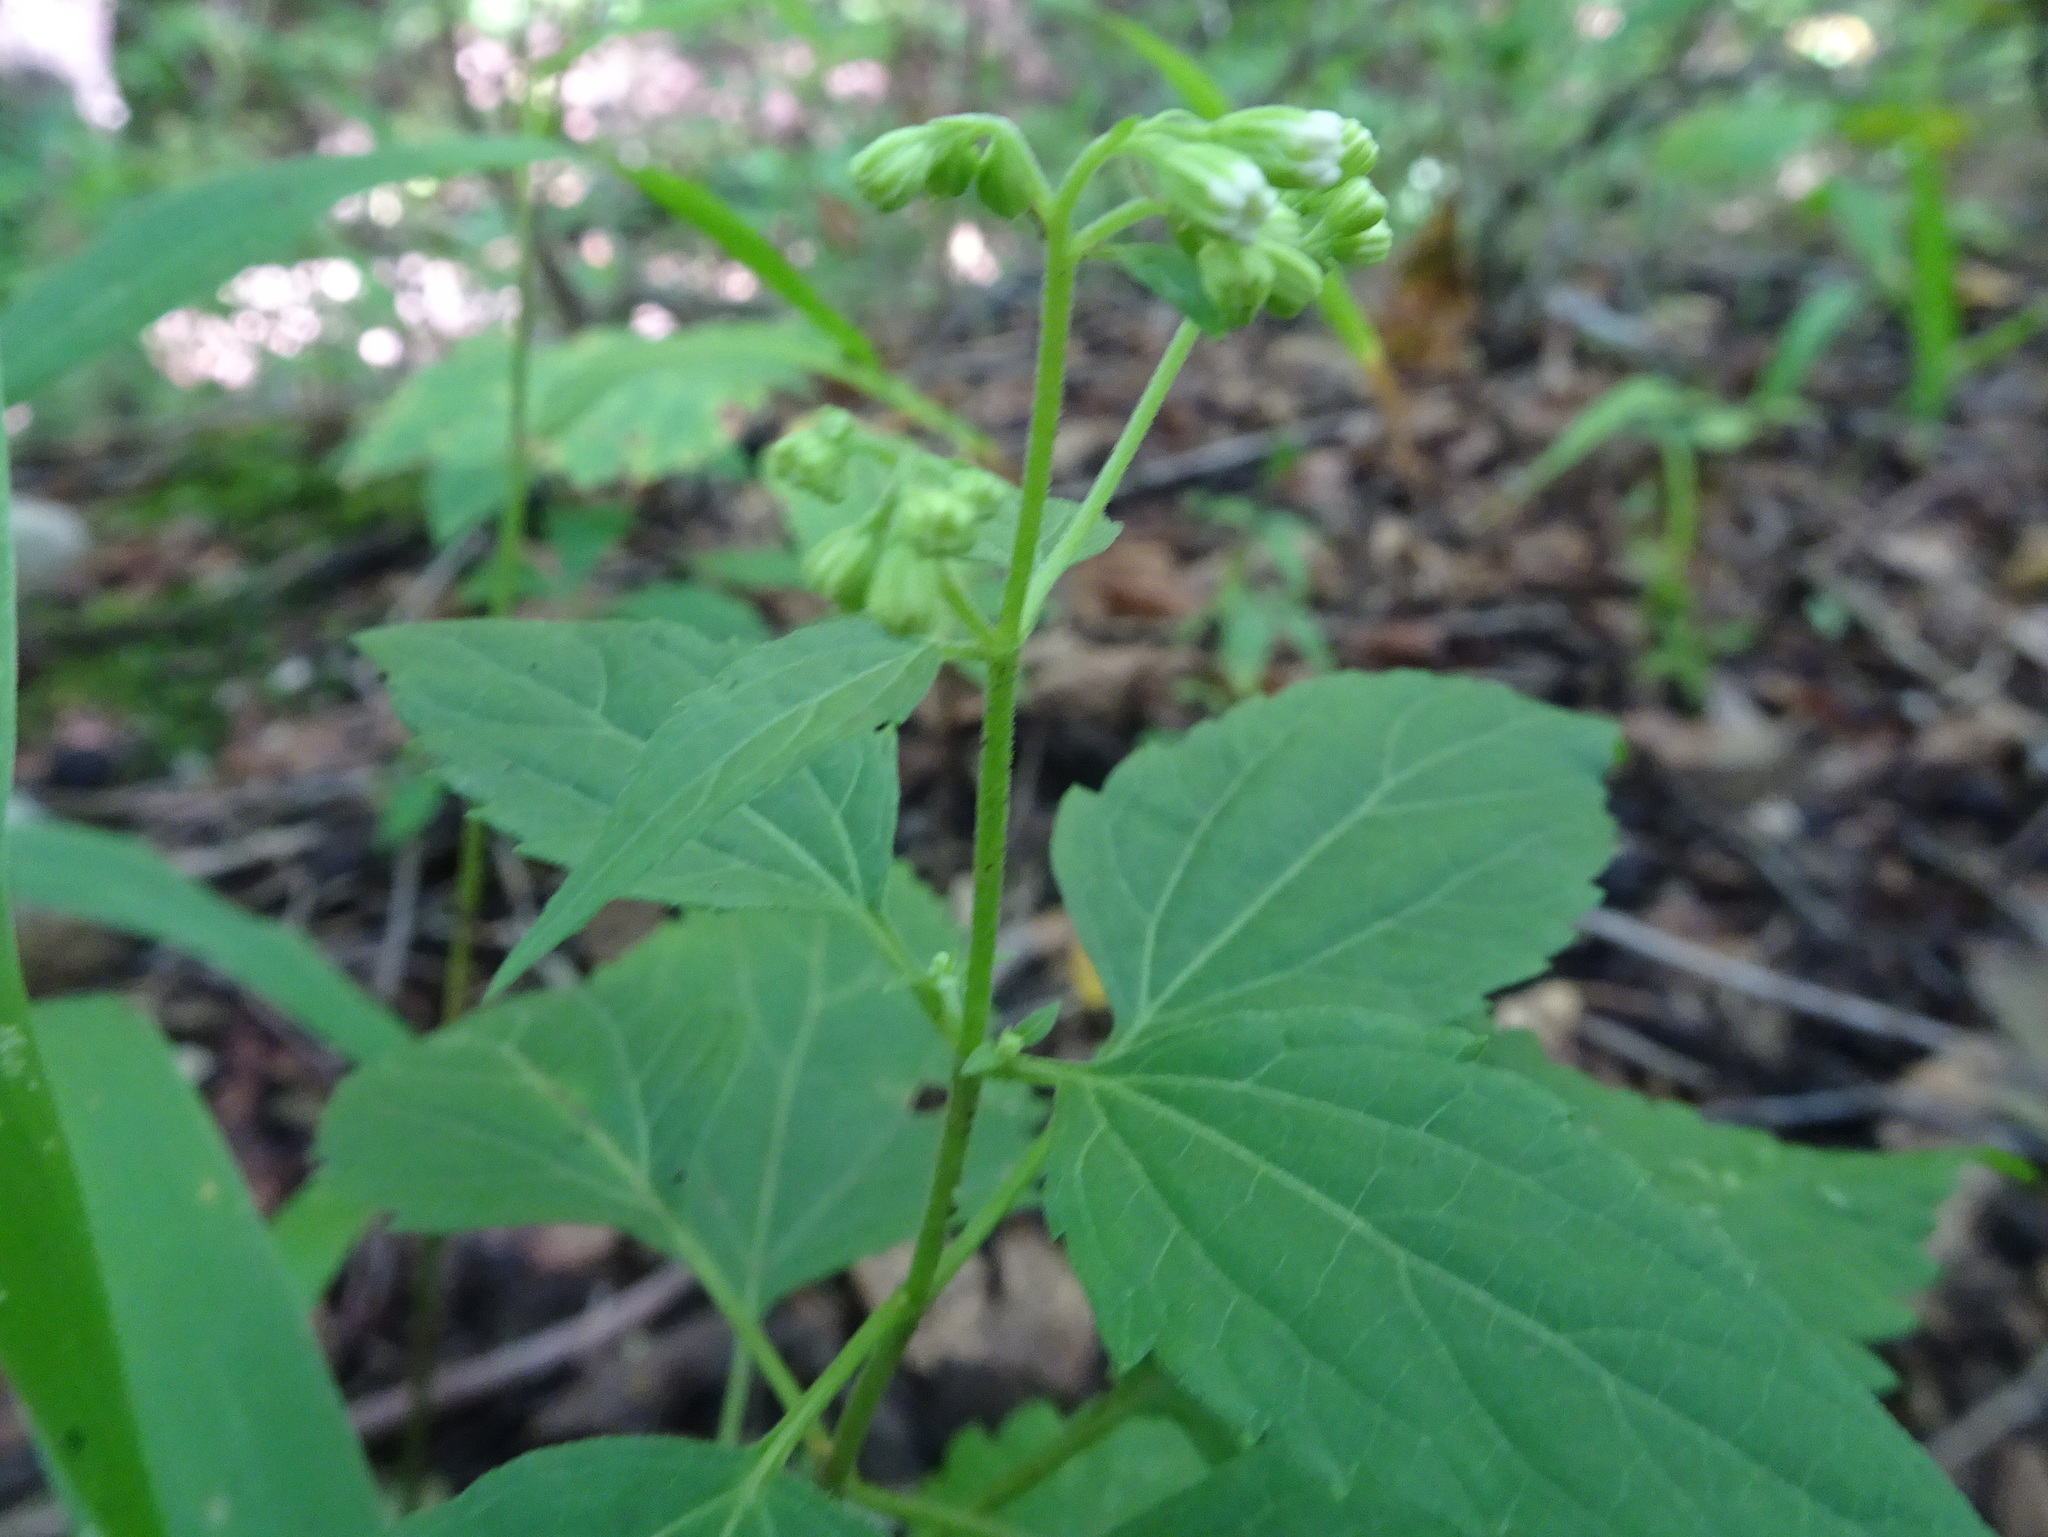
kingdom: Plantae
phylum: Tracheophyta
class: Magnoliopsida
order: Asterales
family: Asteraceae
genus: Ageratina
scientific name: Ageratina altissima
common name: White snakeroot
